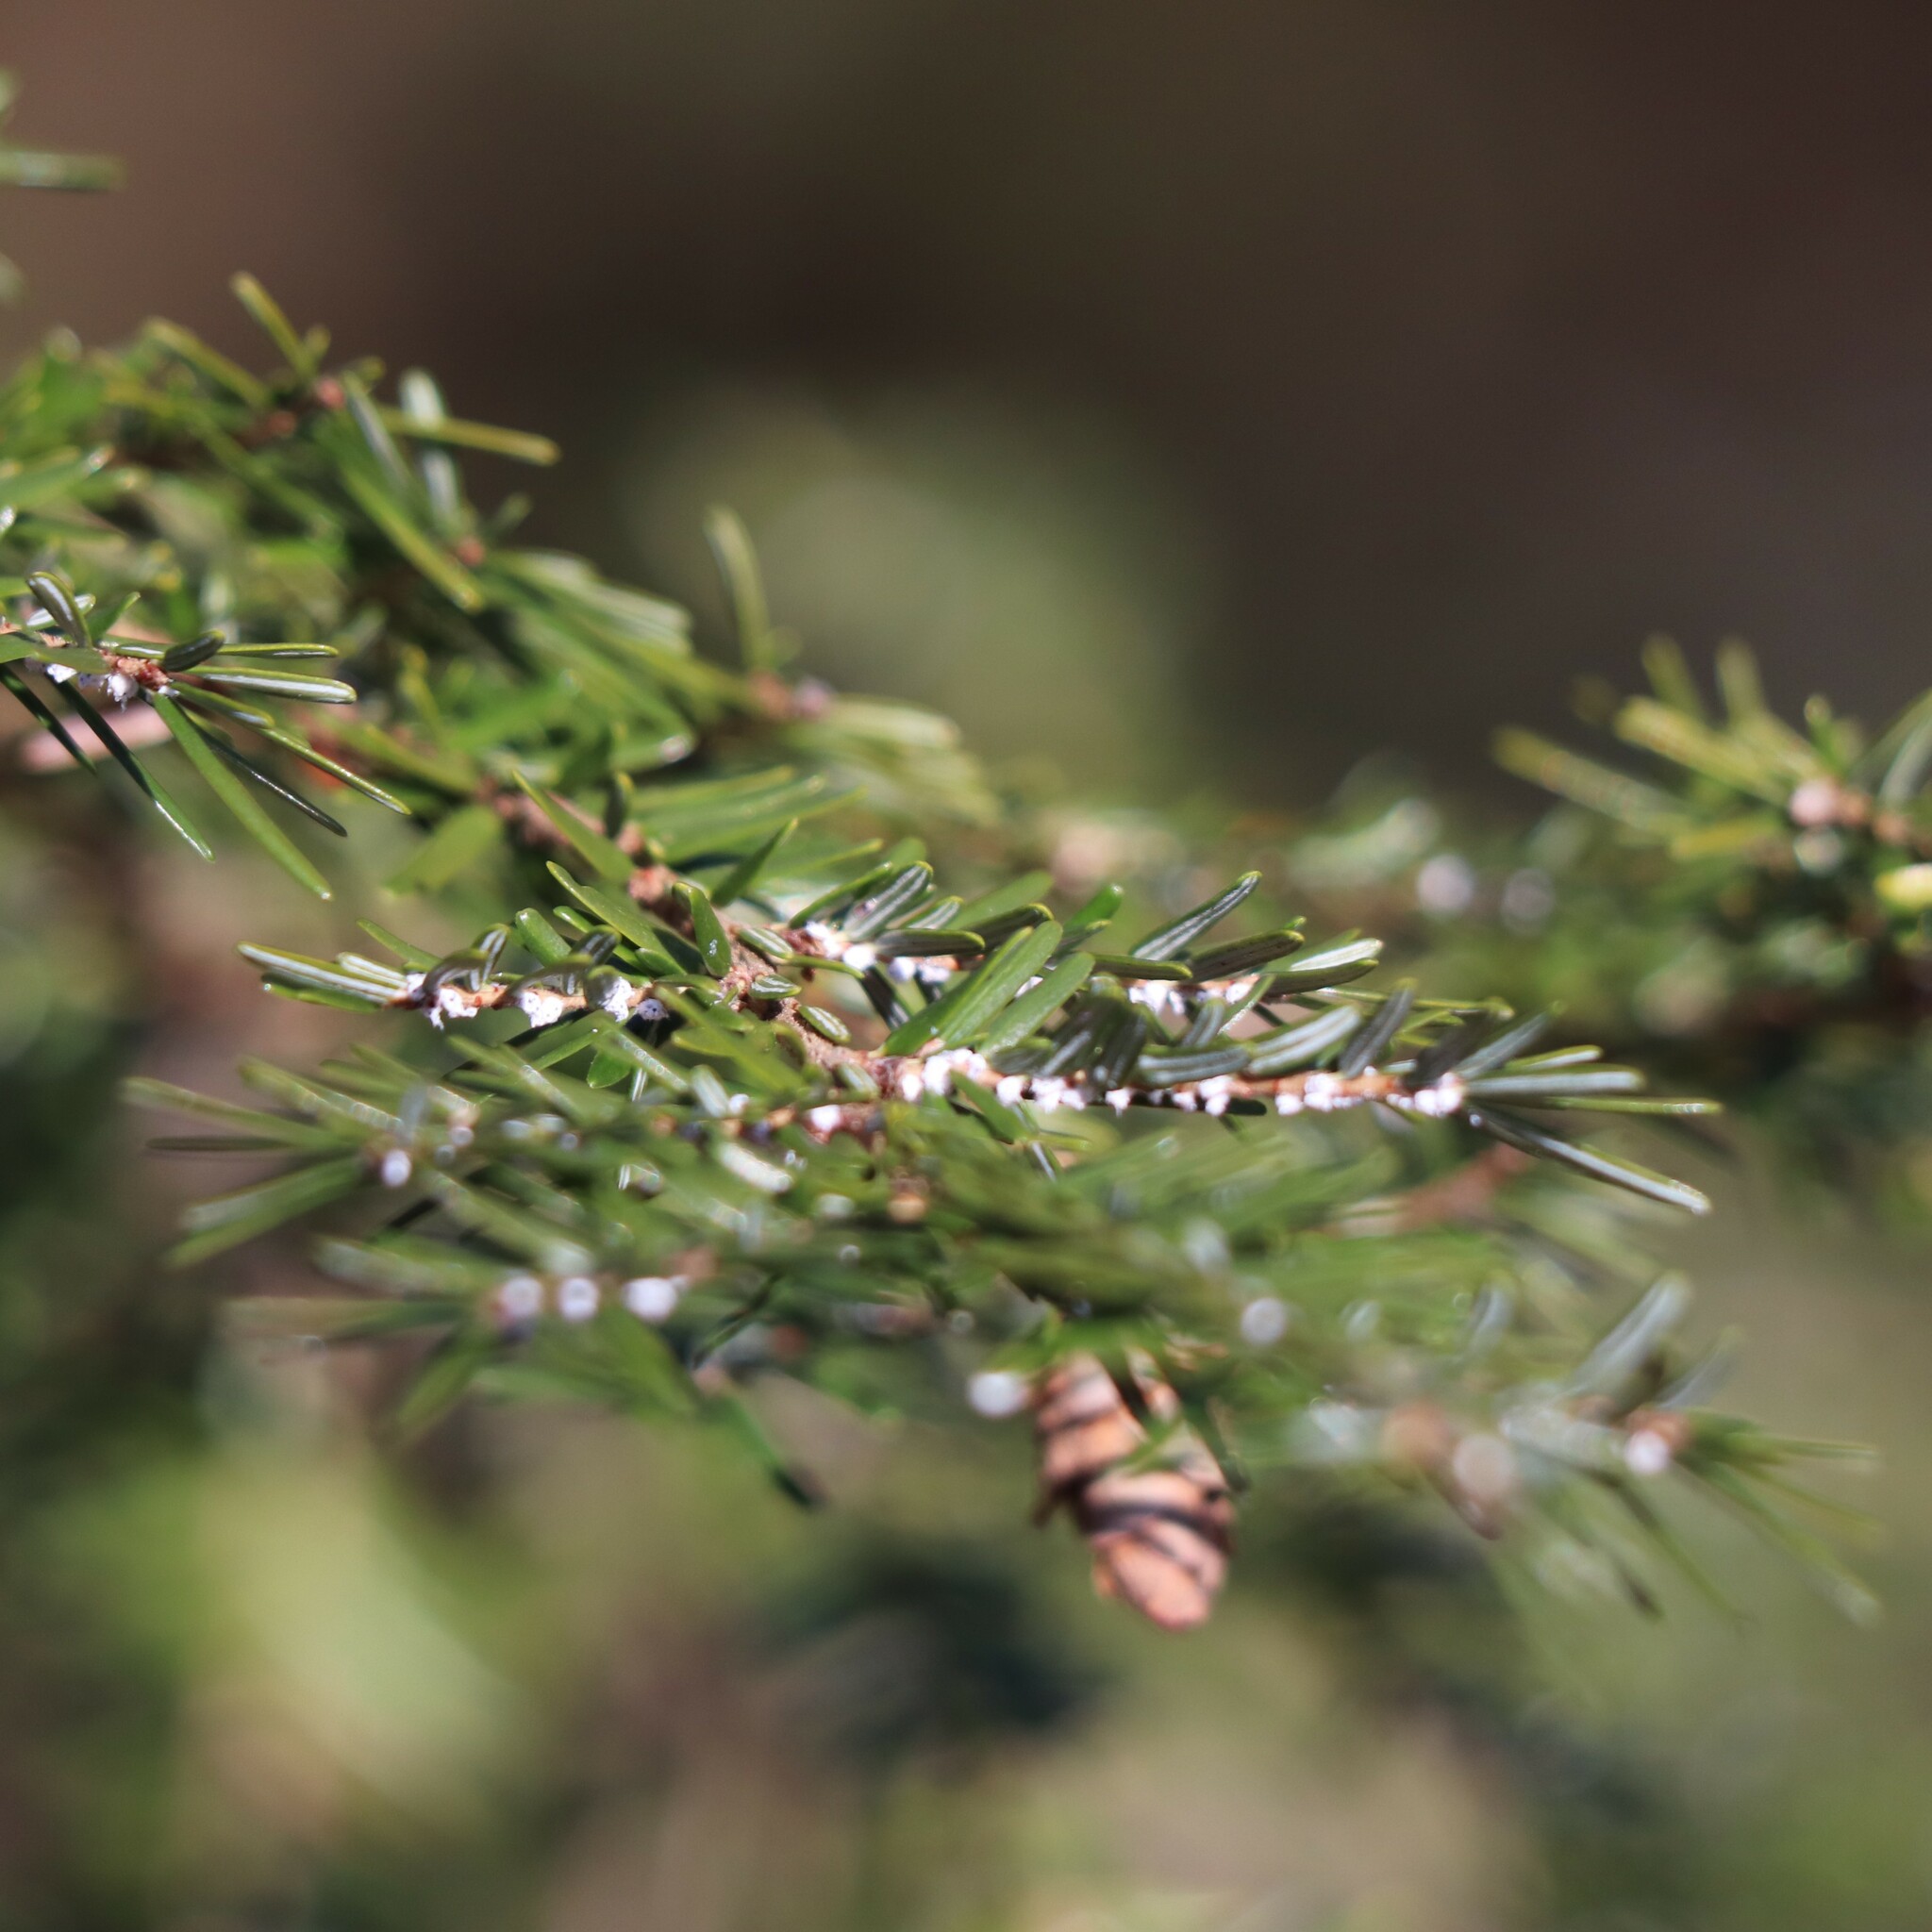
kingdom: Animalia
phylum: Arthropoda
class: Insecta
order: Hemiptera
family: Adelgidae
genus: Adelges
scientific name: Adelges tsugae
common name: Hemlock woolly adelgid
